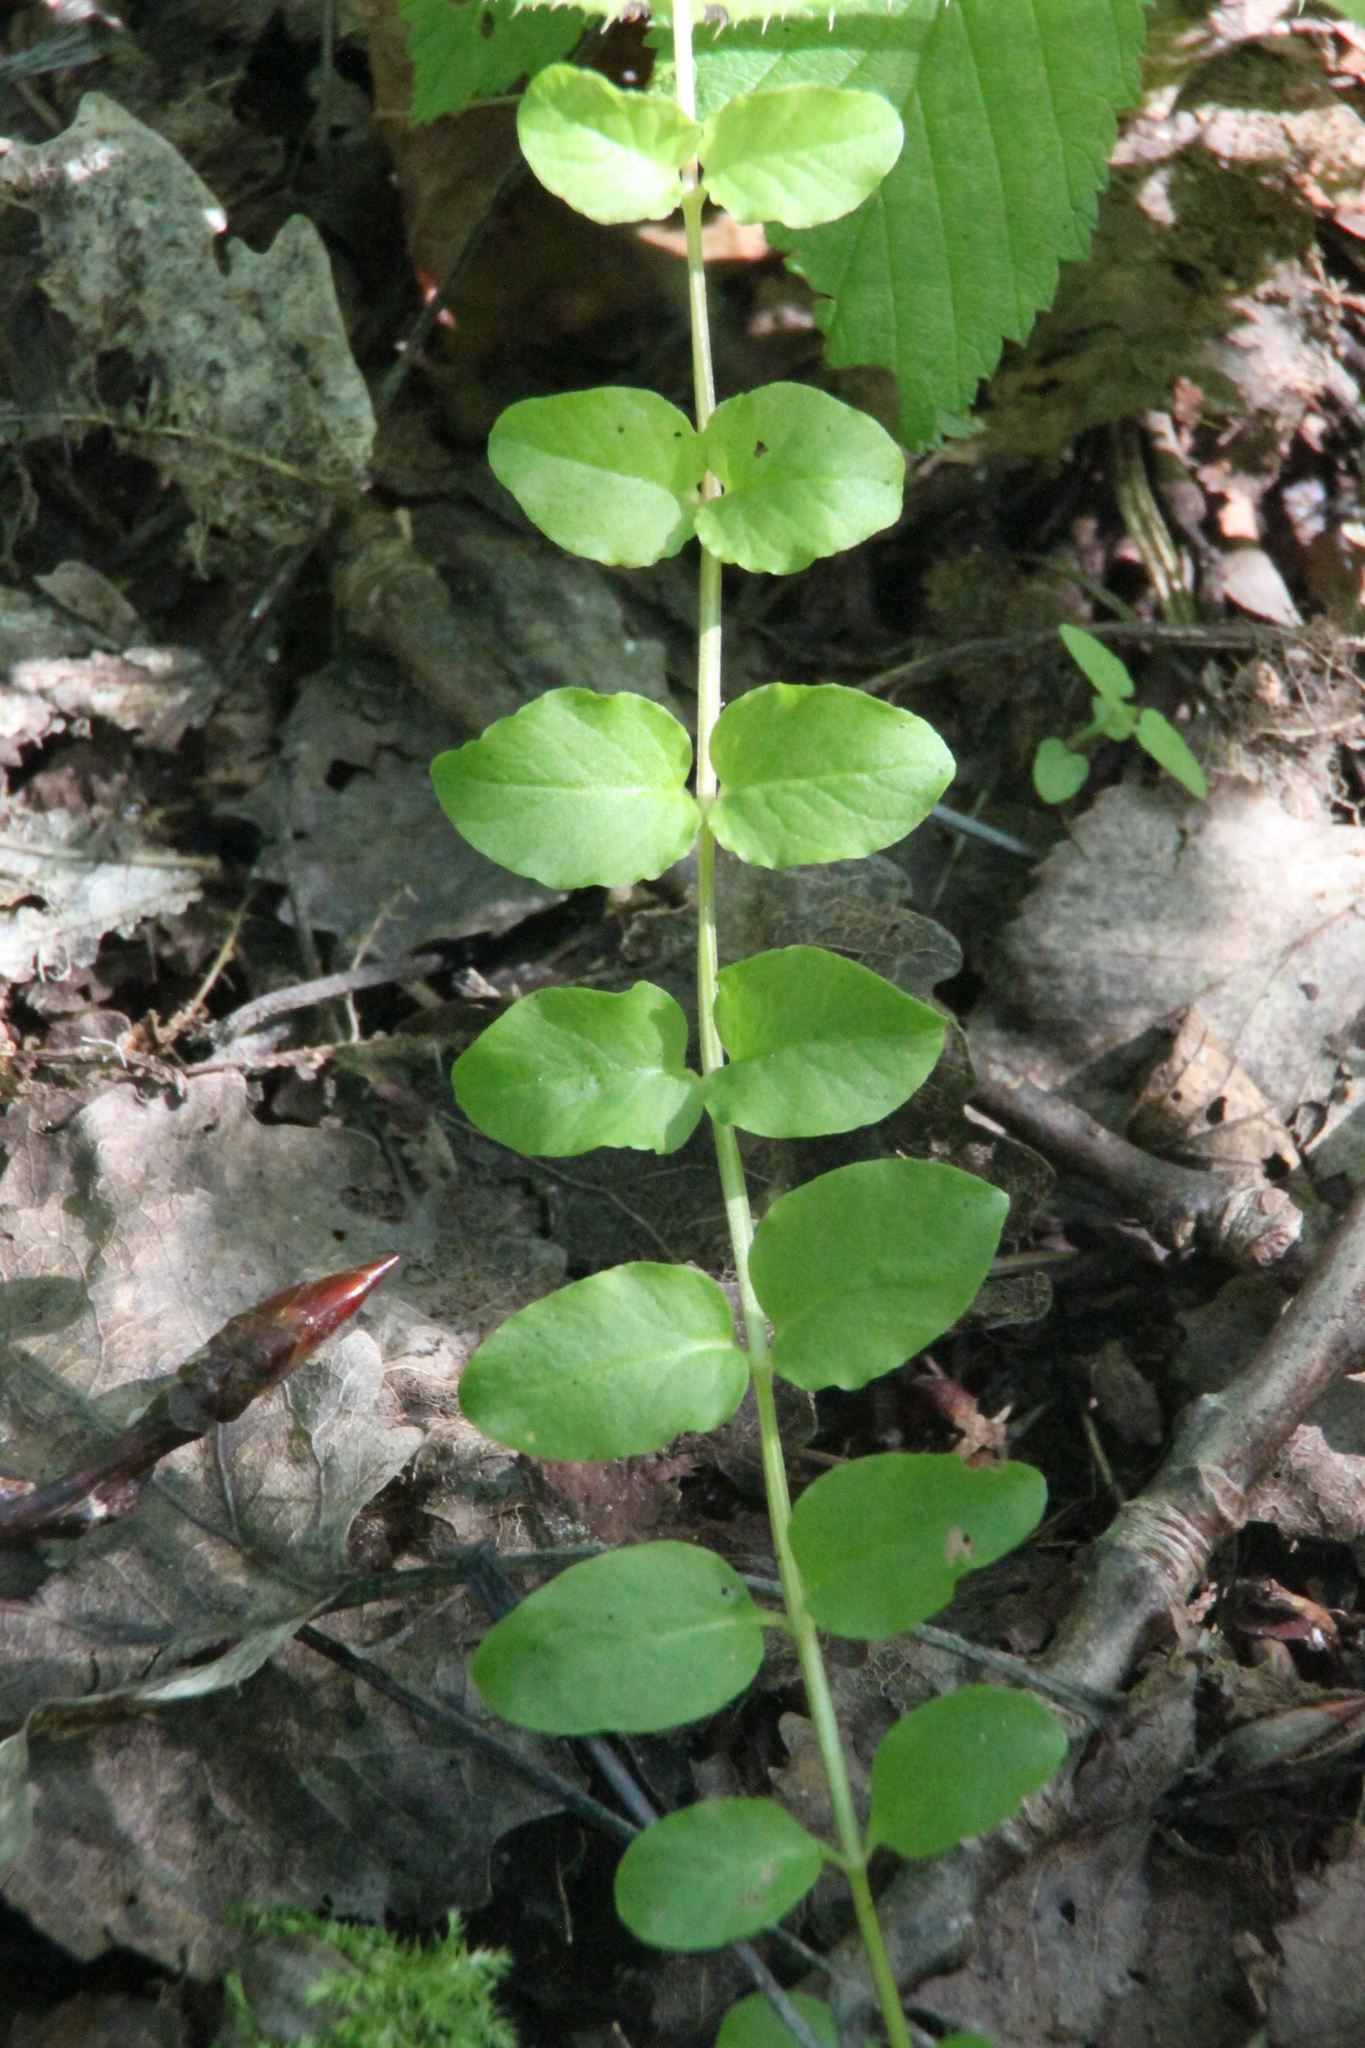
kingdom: Plantae
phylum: Tracheophyta
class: Magnoliopsida
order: Ericales
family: Primulaceae
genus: Lysimachia
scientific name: Lysimachia nummularia
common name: Moneywort
